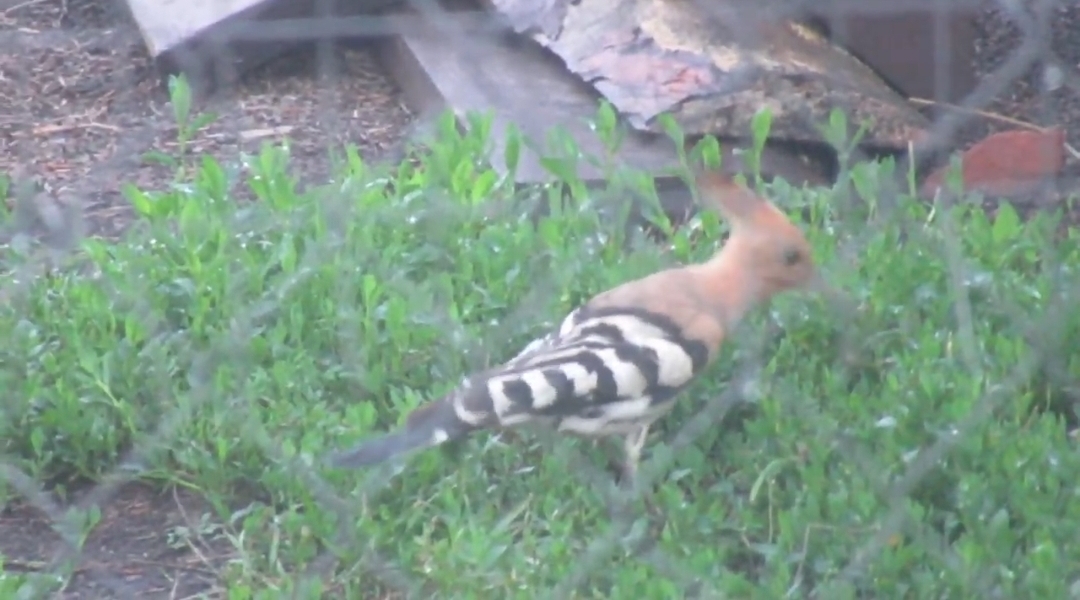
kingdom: Animalia
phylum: Chordata
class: Aves
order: Bucerotiformes
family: Upupidae
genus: Upupa
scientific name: Upupa epops
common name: Eurasian hoopoe
